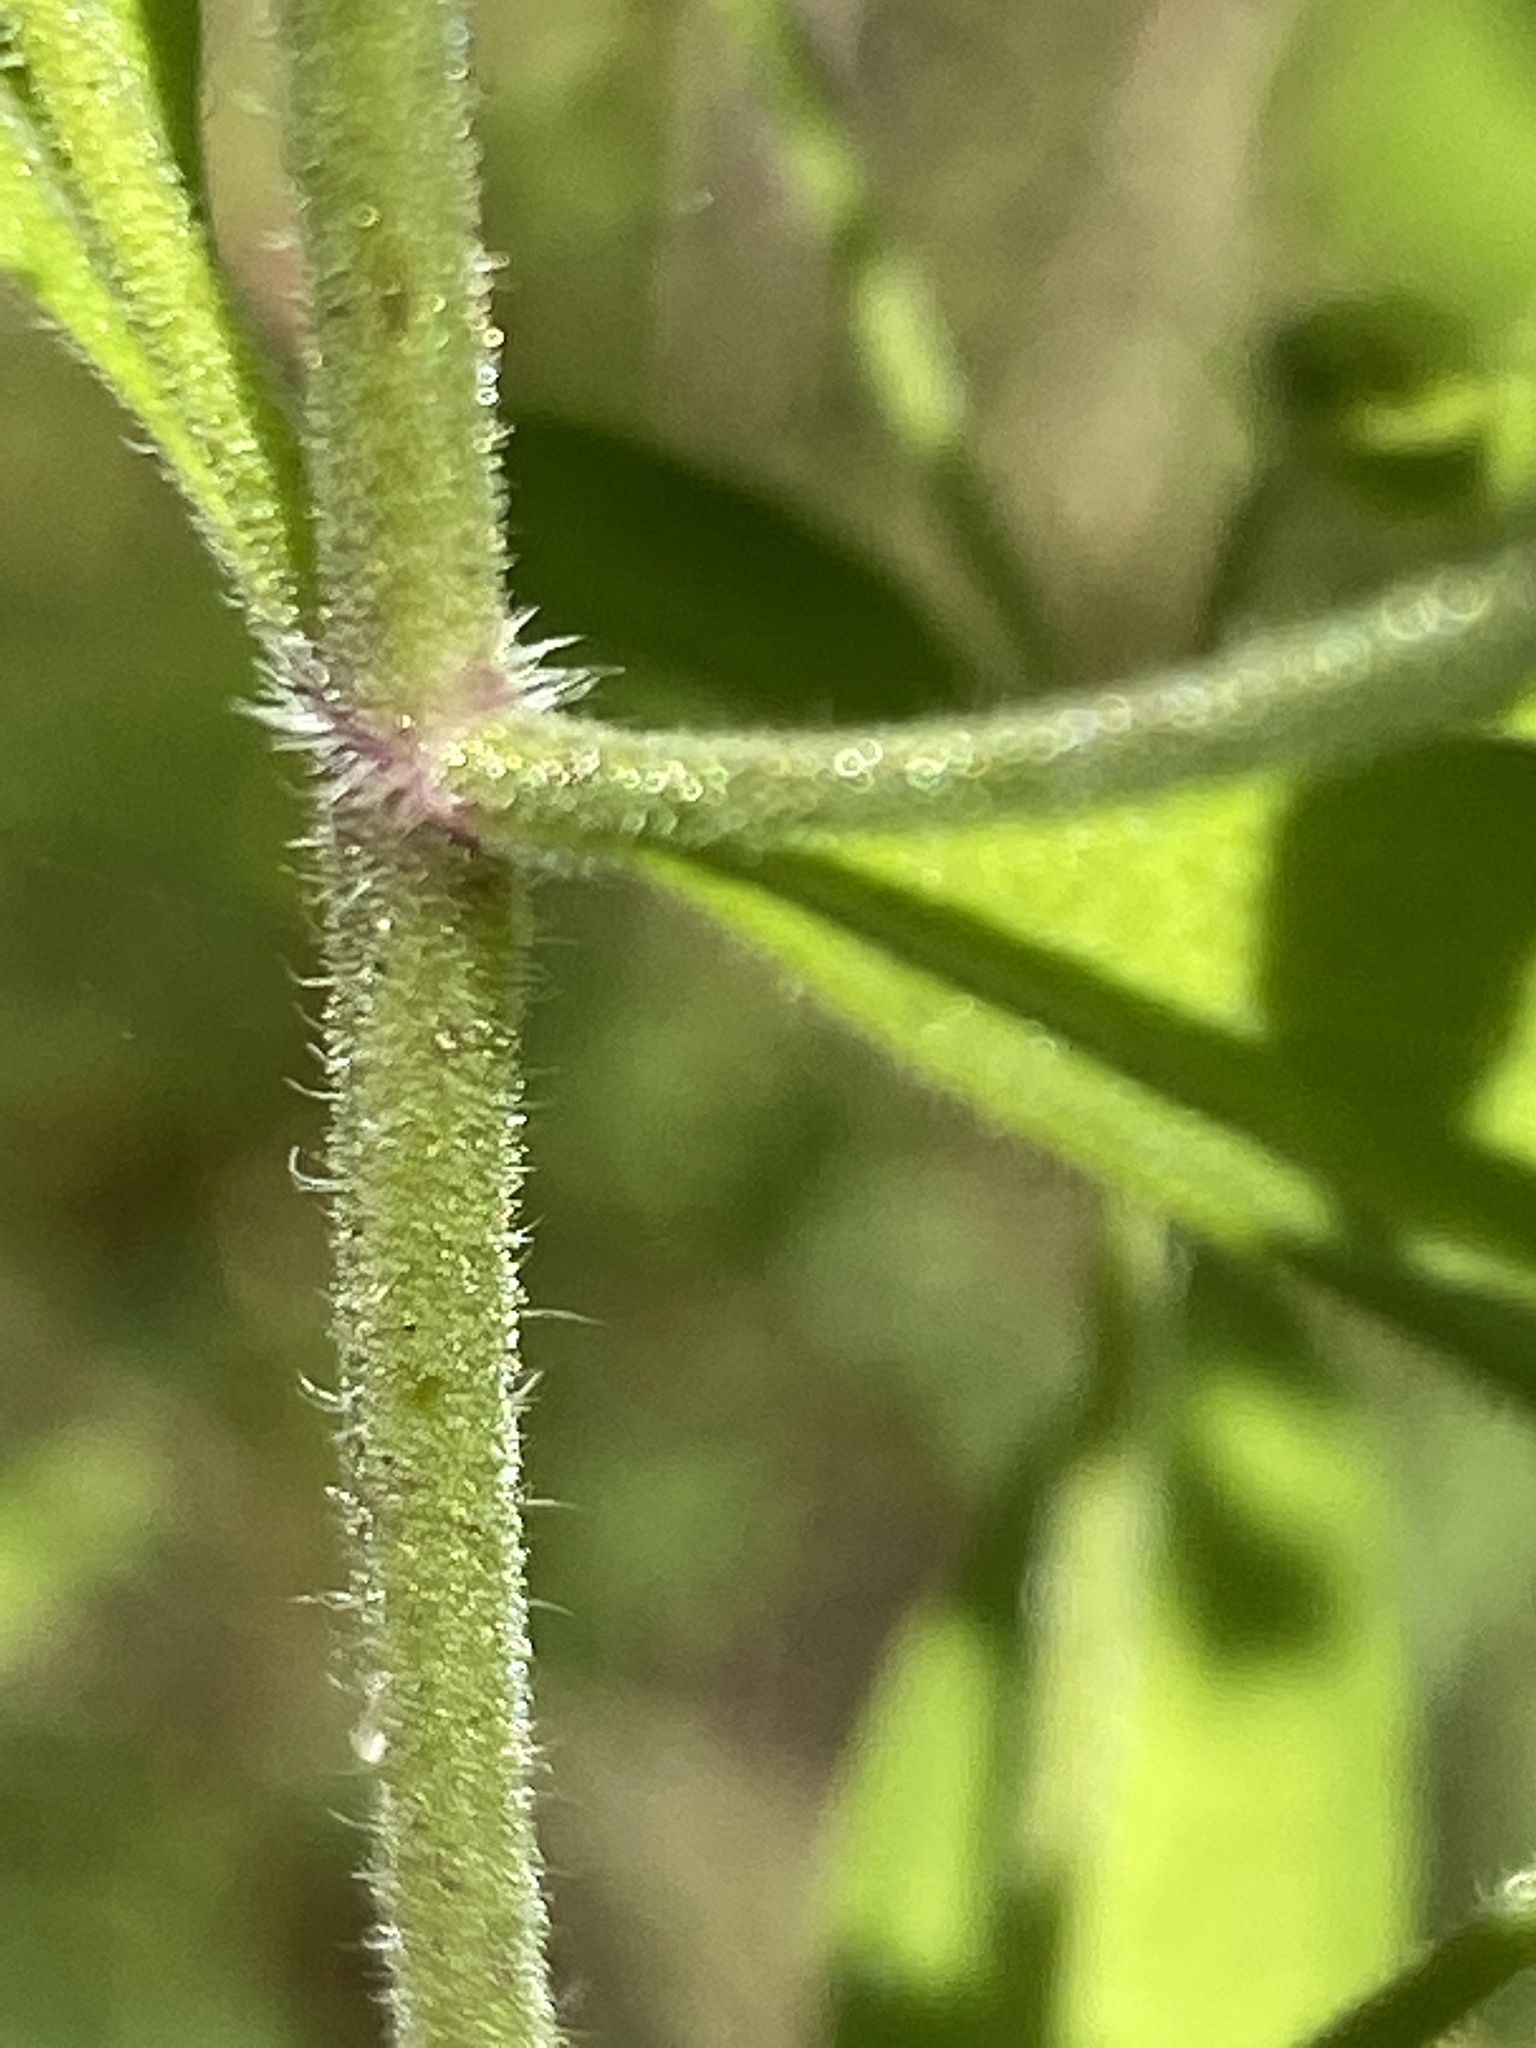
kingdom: Plantae
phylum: Tracheophyta
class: Magnoliopsida
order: Lamiales
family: Lamiaceae
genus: Trichostema
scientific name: Trichostema dichotomum
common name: Bastard pennyroyal
